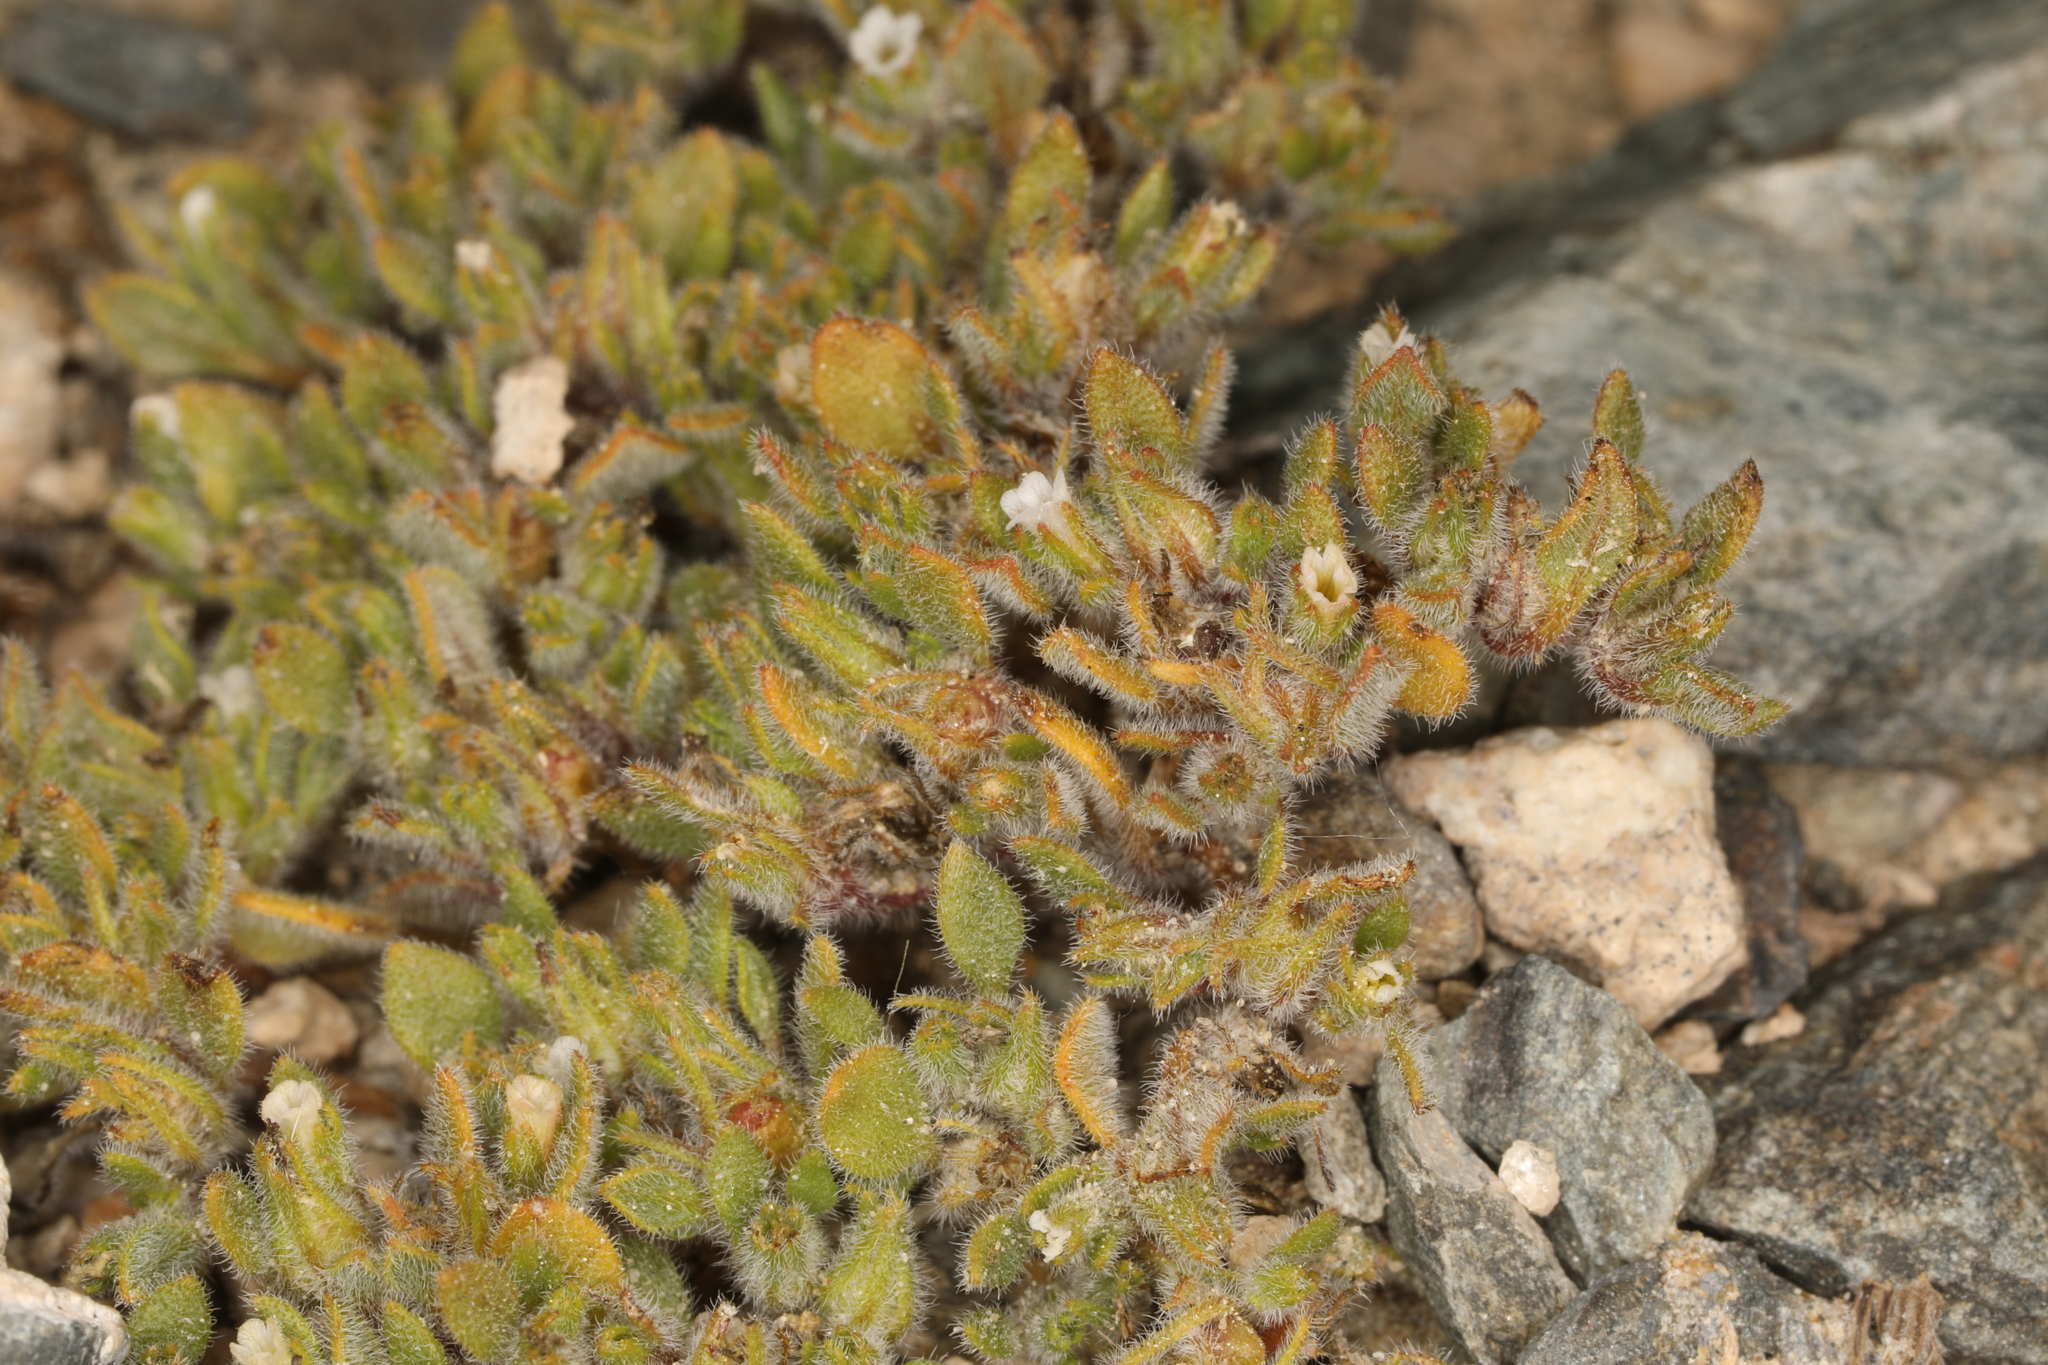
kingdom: Plantae
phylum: Tracheophyta
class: Magnoliopsida
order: Boraginales
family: Namaceae
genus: Nama
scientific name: Nama pusilla
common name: Eggleaf nama
